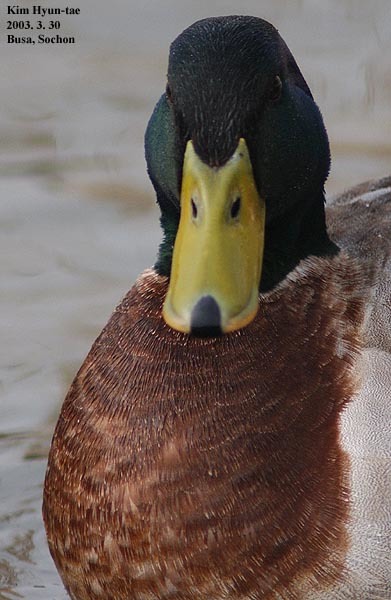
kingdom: Animalia
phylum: Chordata
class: Aves
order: Anseriformes
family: Anatidae
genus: Anas
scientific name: Anas platyrhynchos
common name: Mallard
